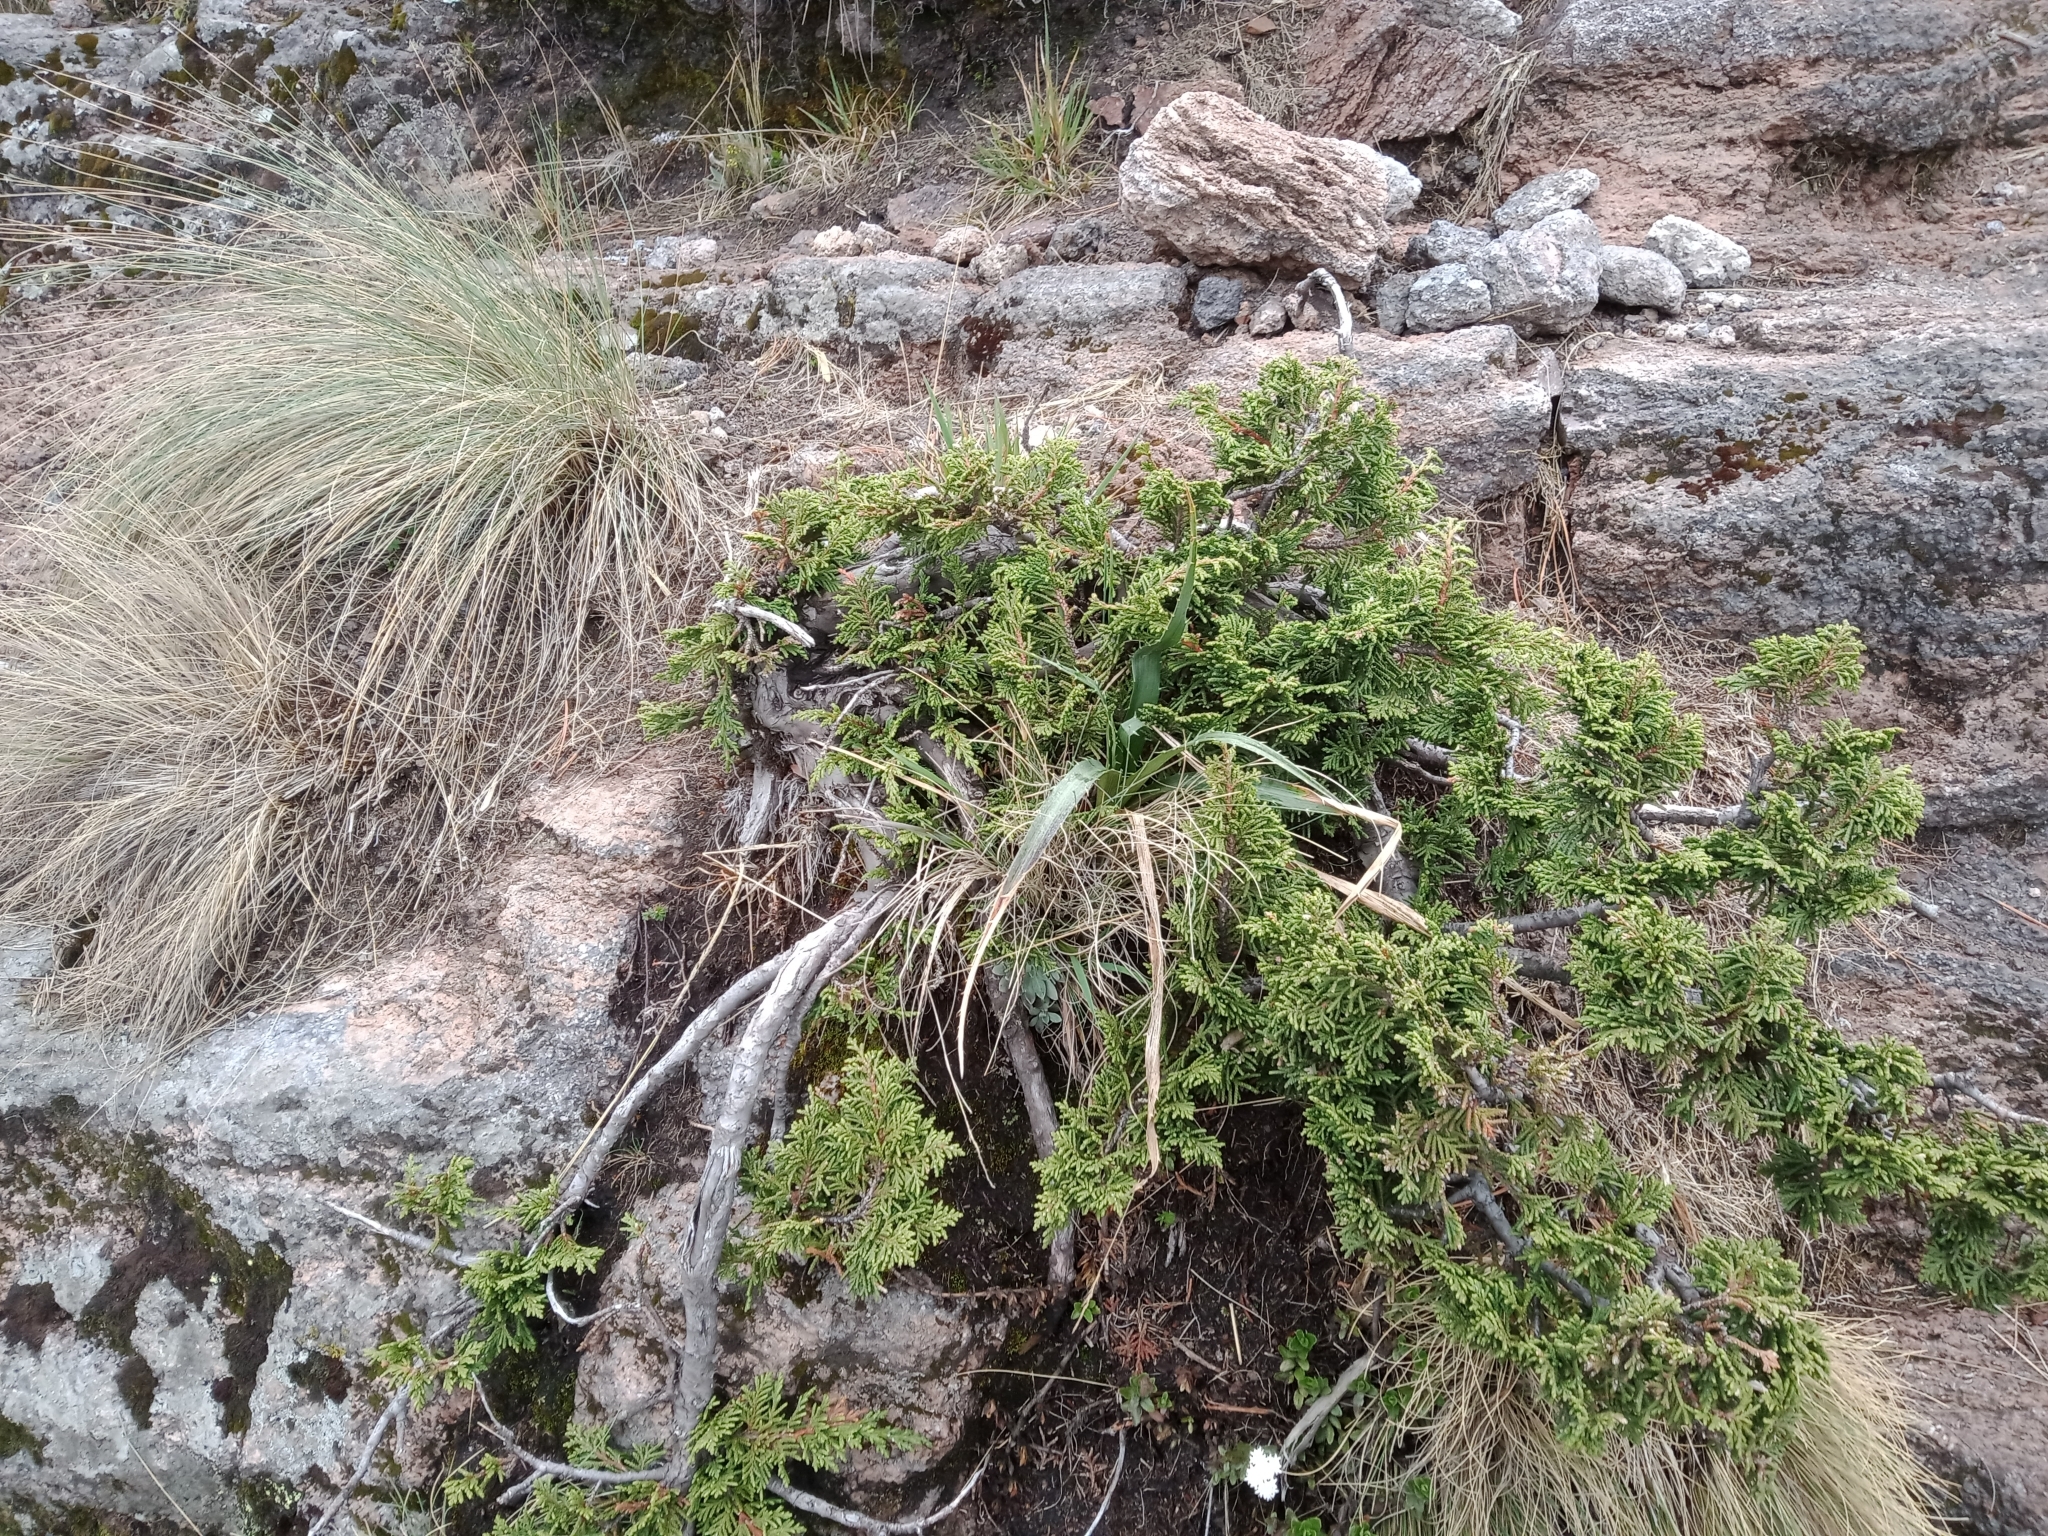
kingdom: Plantae
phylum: Tracheophyta
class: Pinopsida
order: Pinales
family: Cupressaceae
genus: Juniperus
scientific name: Juniperus monticola
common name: Mexican juniper
